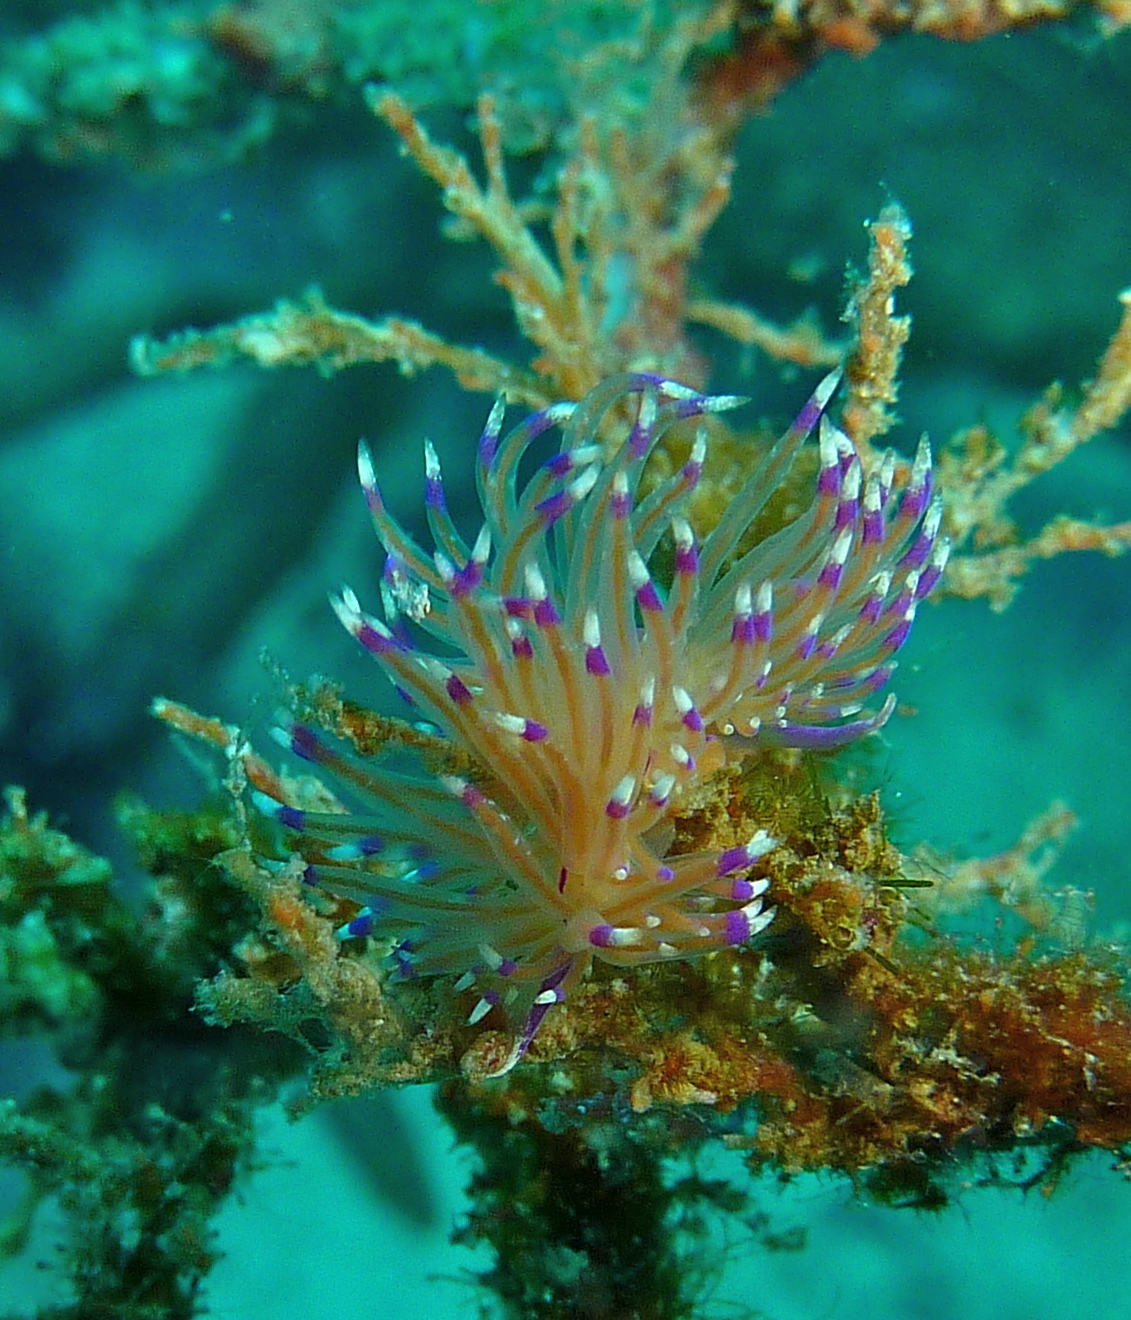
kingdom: Animalia
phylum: Mollusca
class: Gastropoda
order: Nudibranchia
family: Unidentiidae
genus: Unidentia
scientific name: Unidentia aliciae
